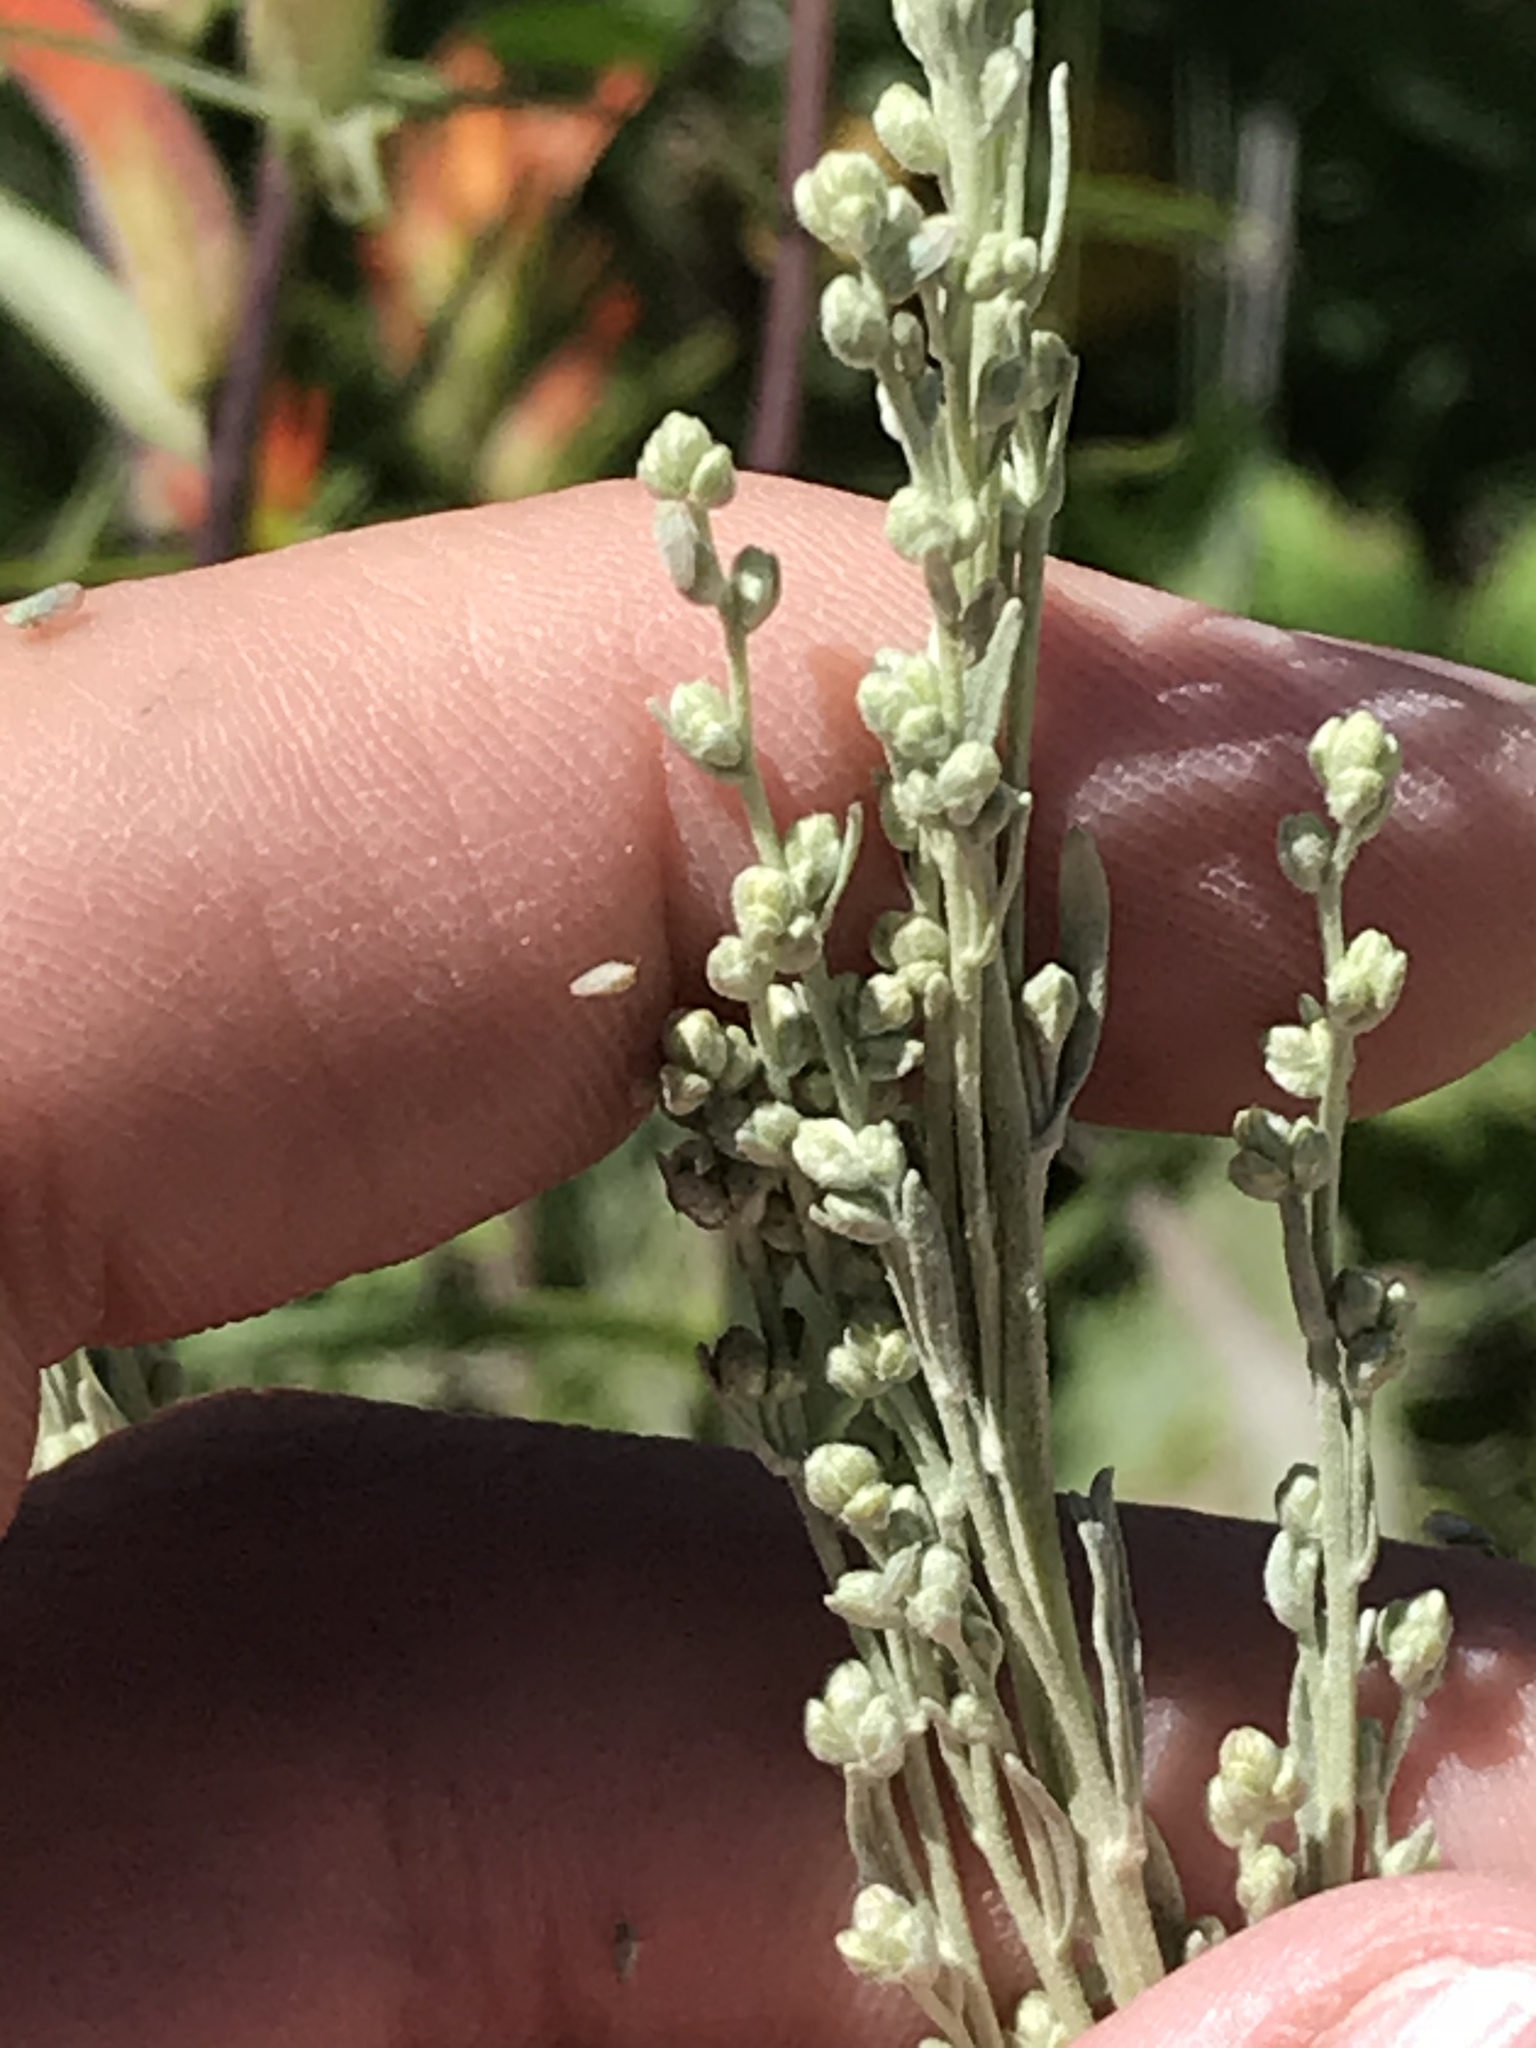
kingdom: Plantae
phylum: Tracheophyta
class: Magnoliopsida
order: Asterales
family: Asteraceae
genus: Artemisia
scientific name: Artemisia tridentata
